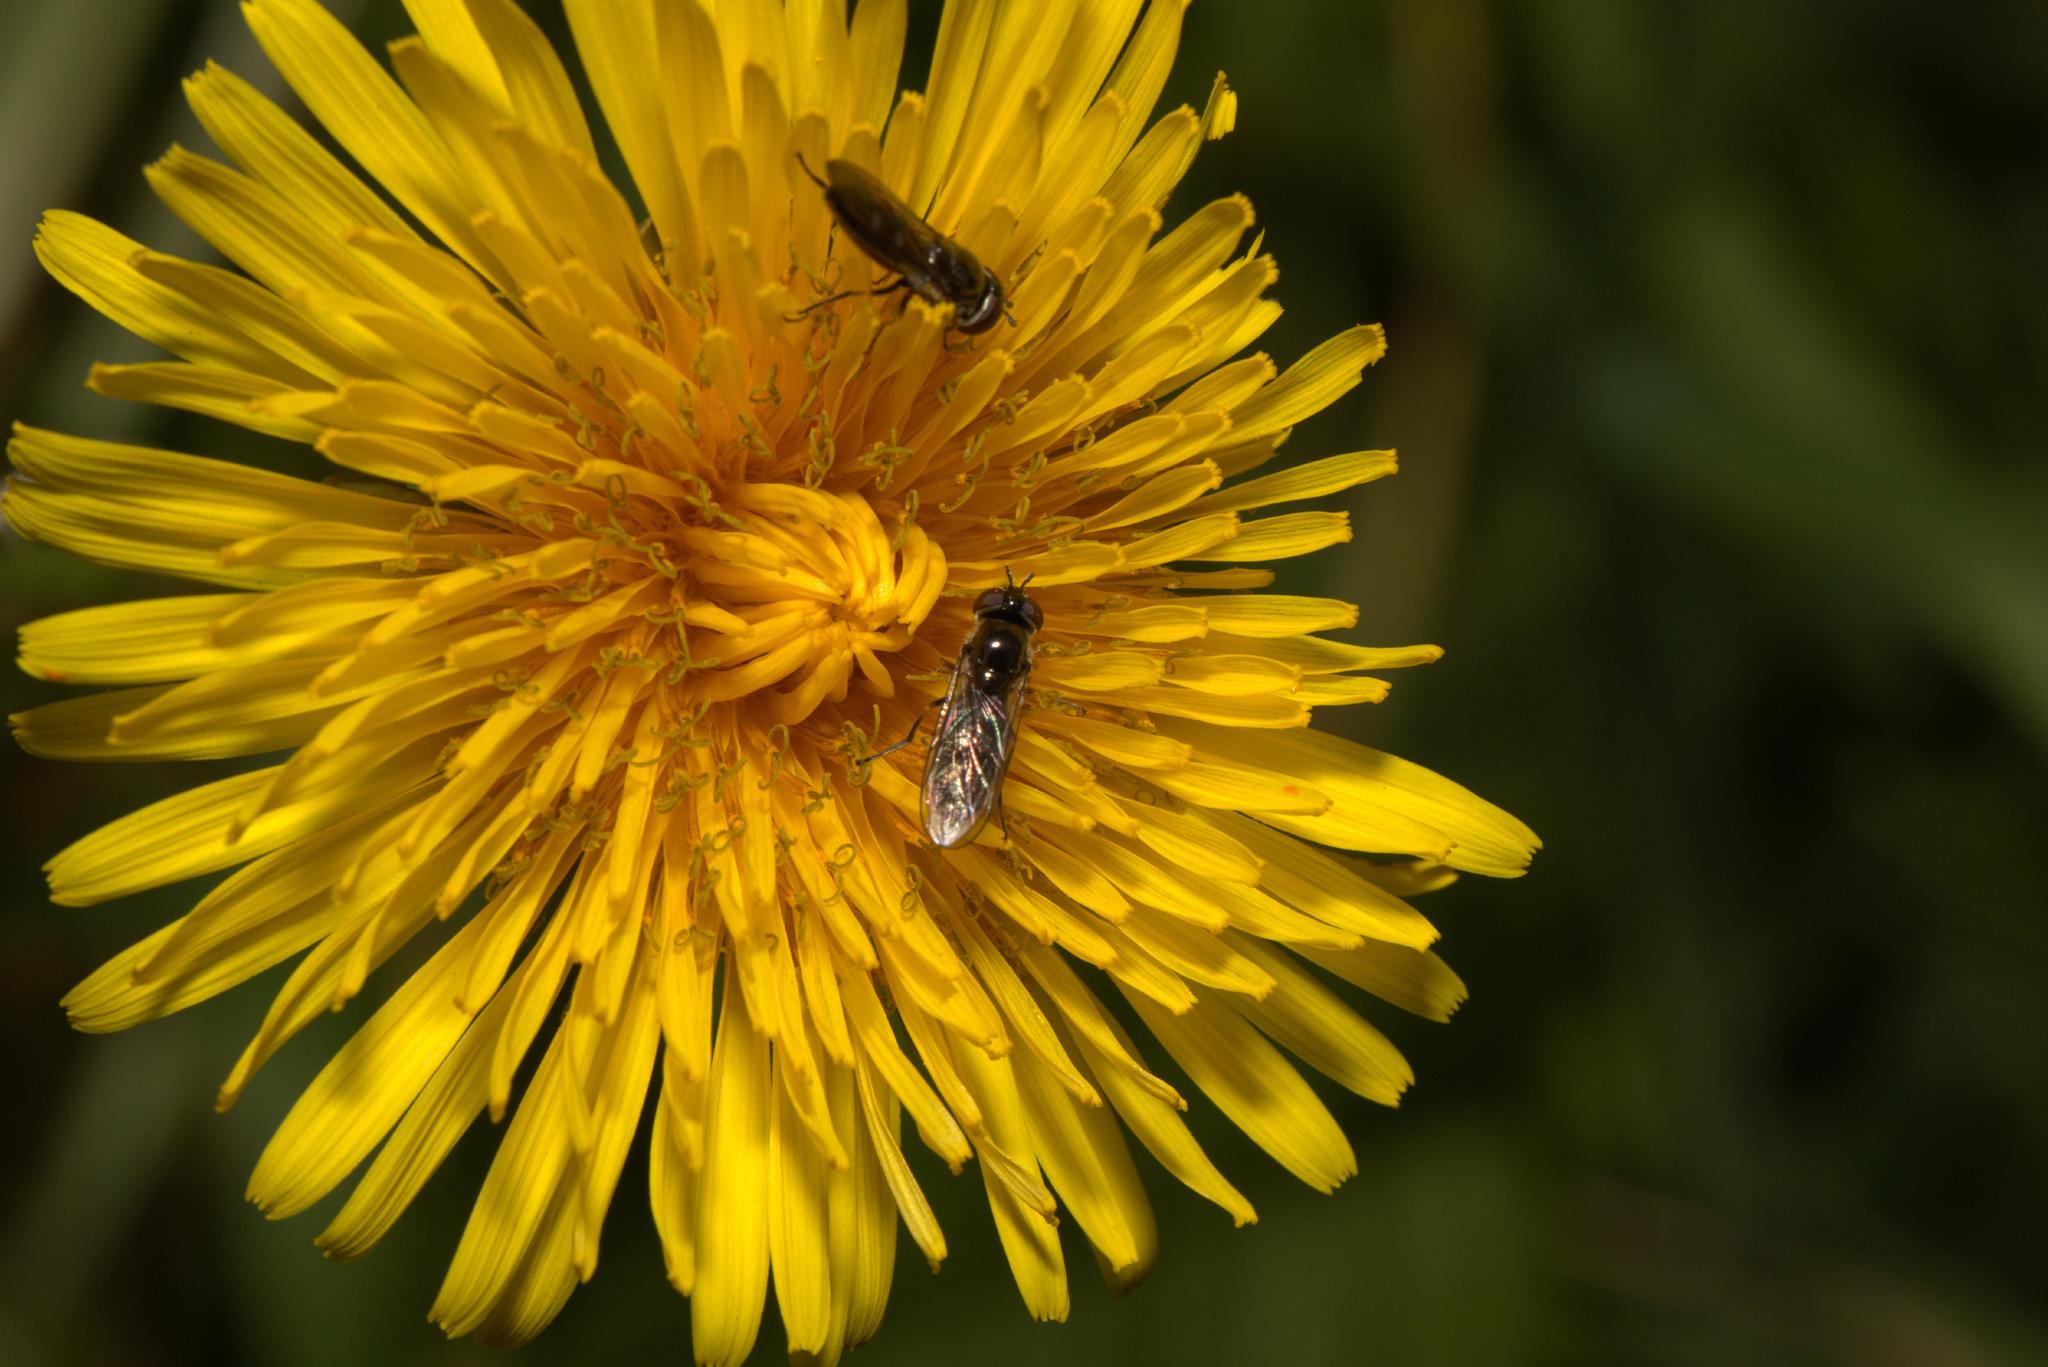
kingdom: Animalia
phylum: Arthropoda
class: Insecta
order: Diptera
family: Syrphidae
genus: Platycheirus
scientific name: Platycheirus
